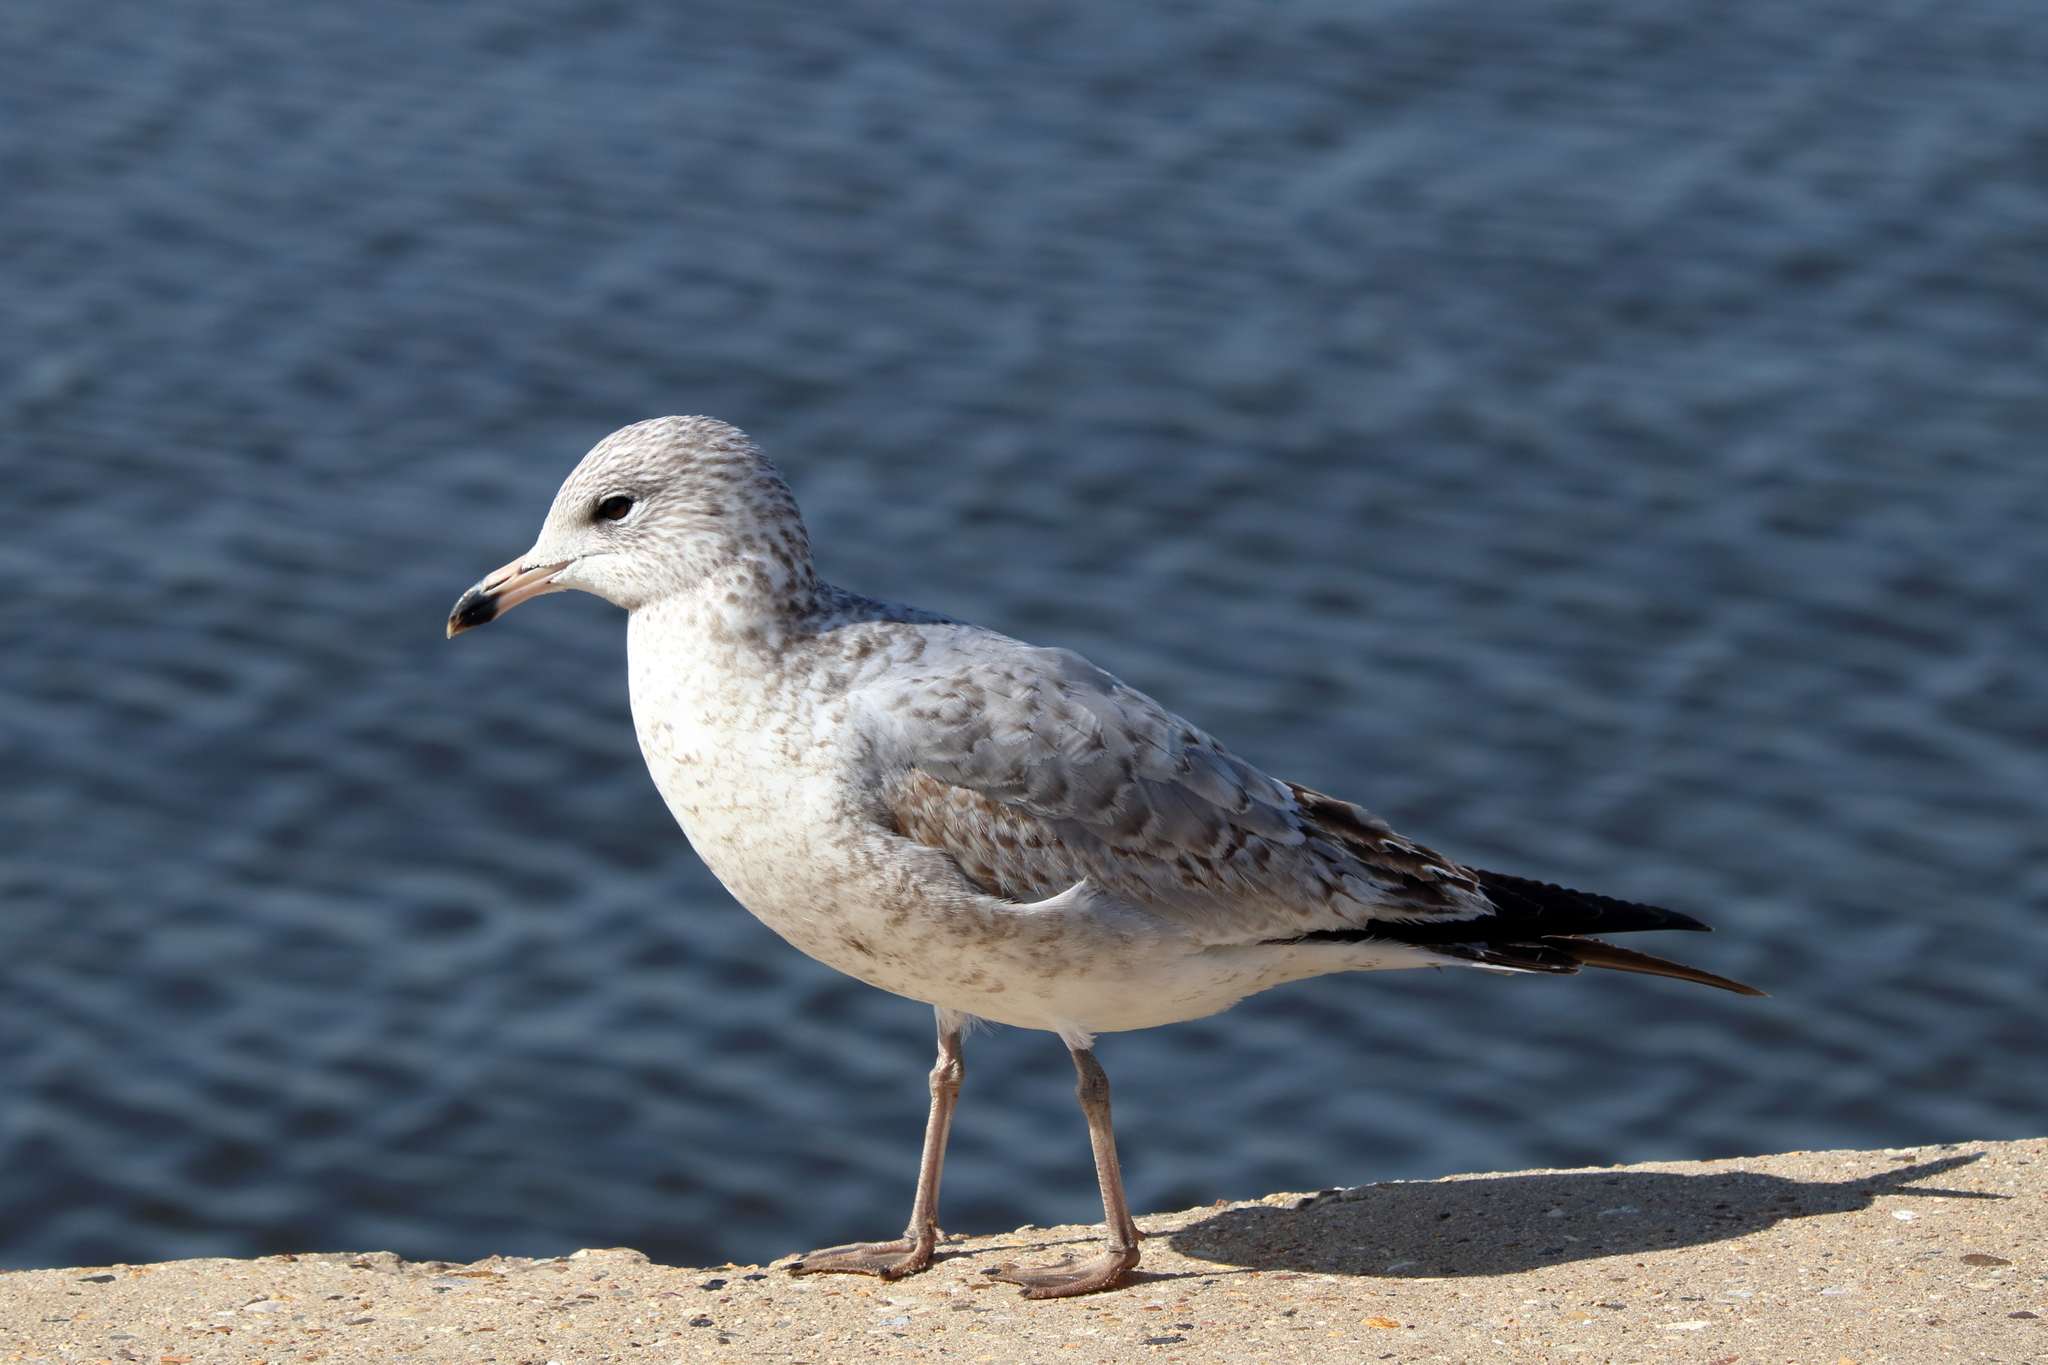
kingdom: Animalia
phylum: Chordata
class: Aves
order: Charadriiformes
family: Laridae
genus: Larus
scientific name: Larus delawarensis
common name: Ring-billed gull
